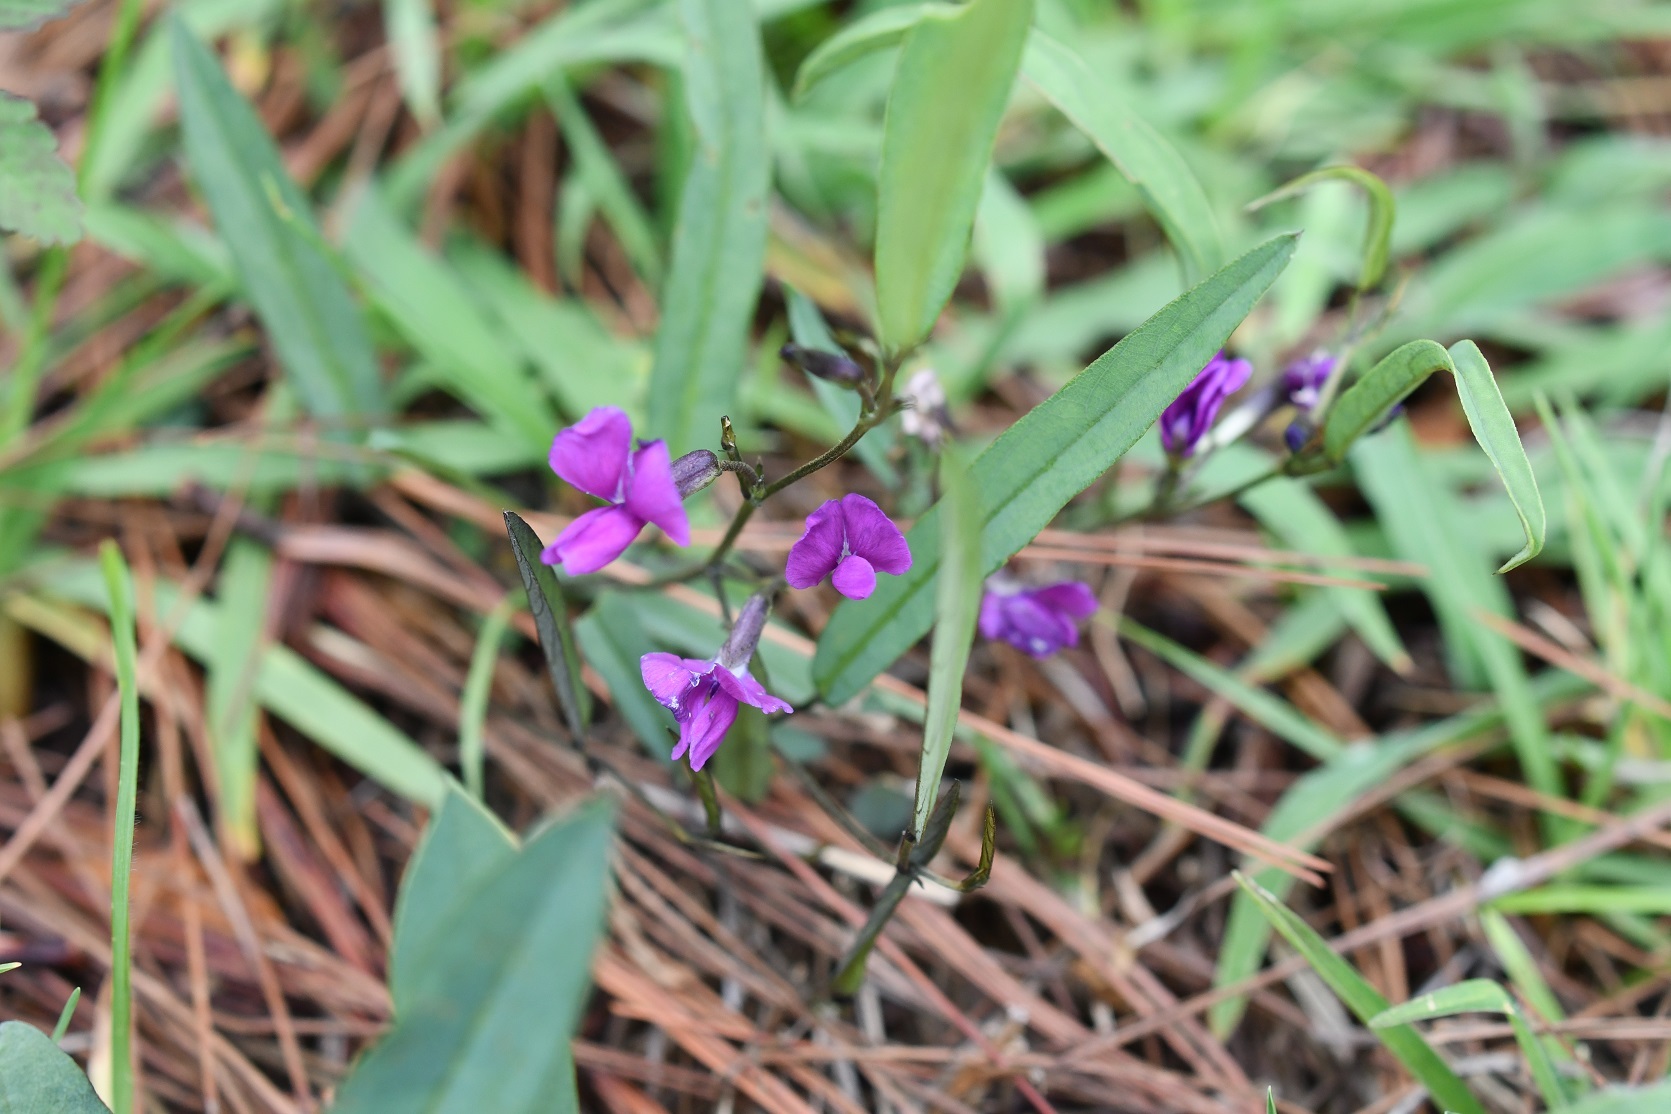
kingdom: Plantae
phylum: Tracheophyta
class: Magnoliopsida
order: Fabales
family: Fabaceae
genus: Cologania
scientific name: Cologania procumbens
